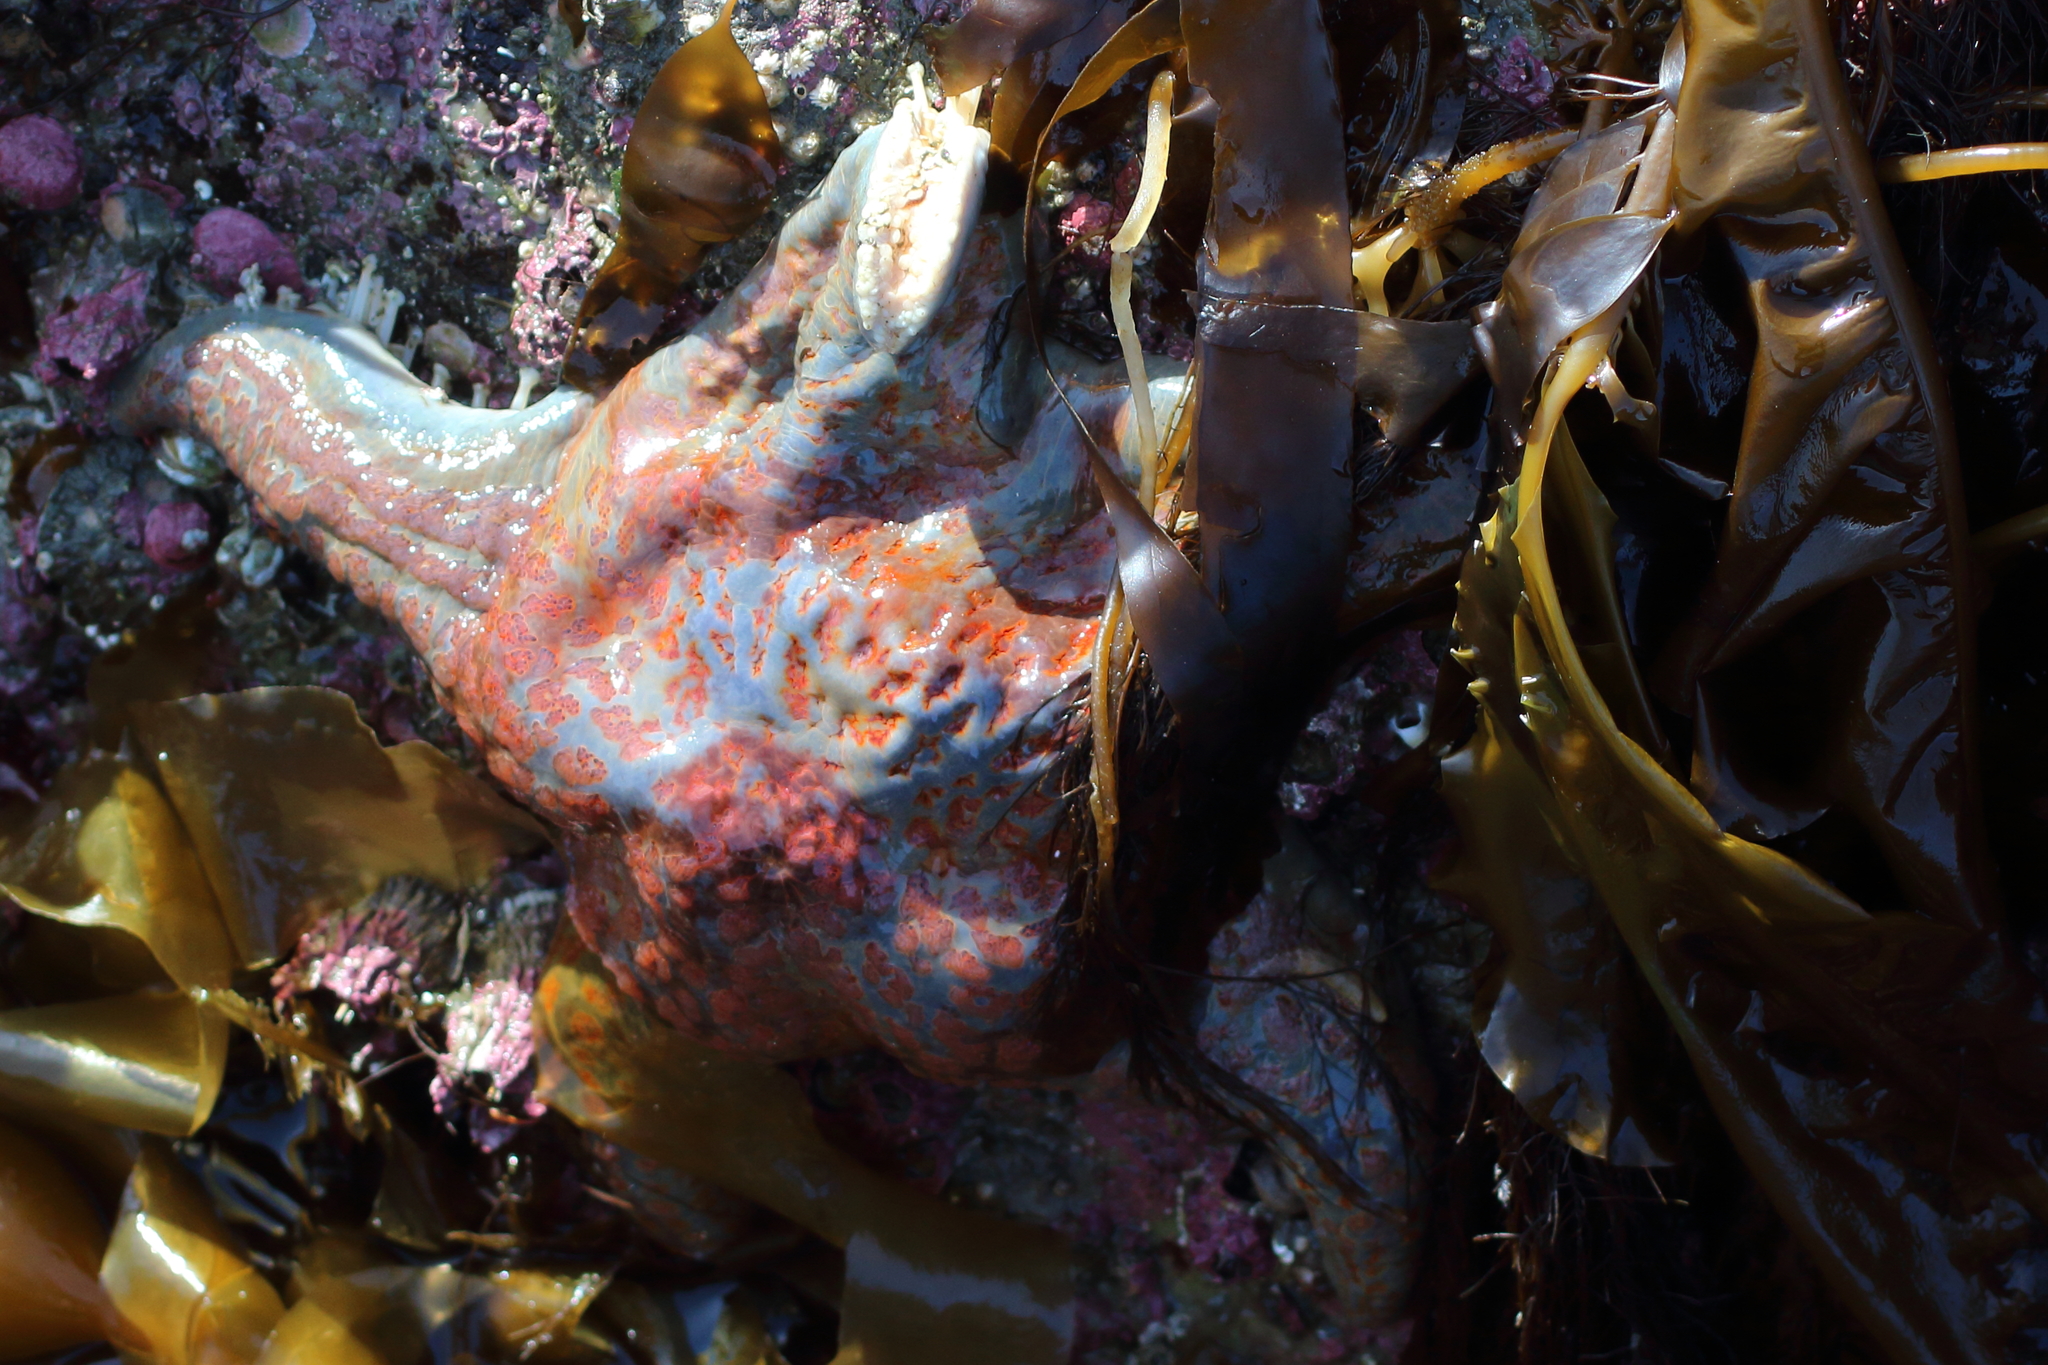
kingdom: Animalia
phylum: Echinodermata
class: Asteroidea
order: Valvatida
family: Asteropseidae
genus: Dermasterias
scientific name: Dermasterias imbricata
